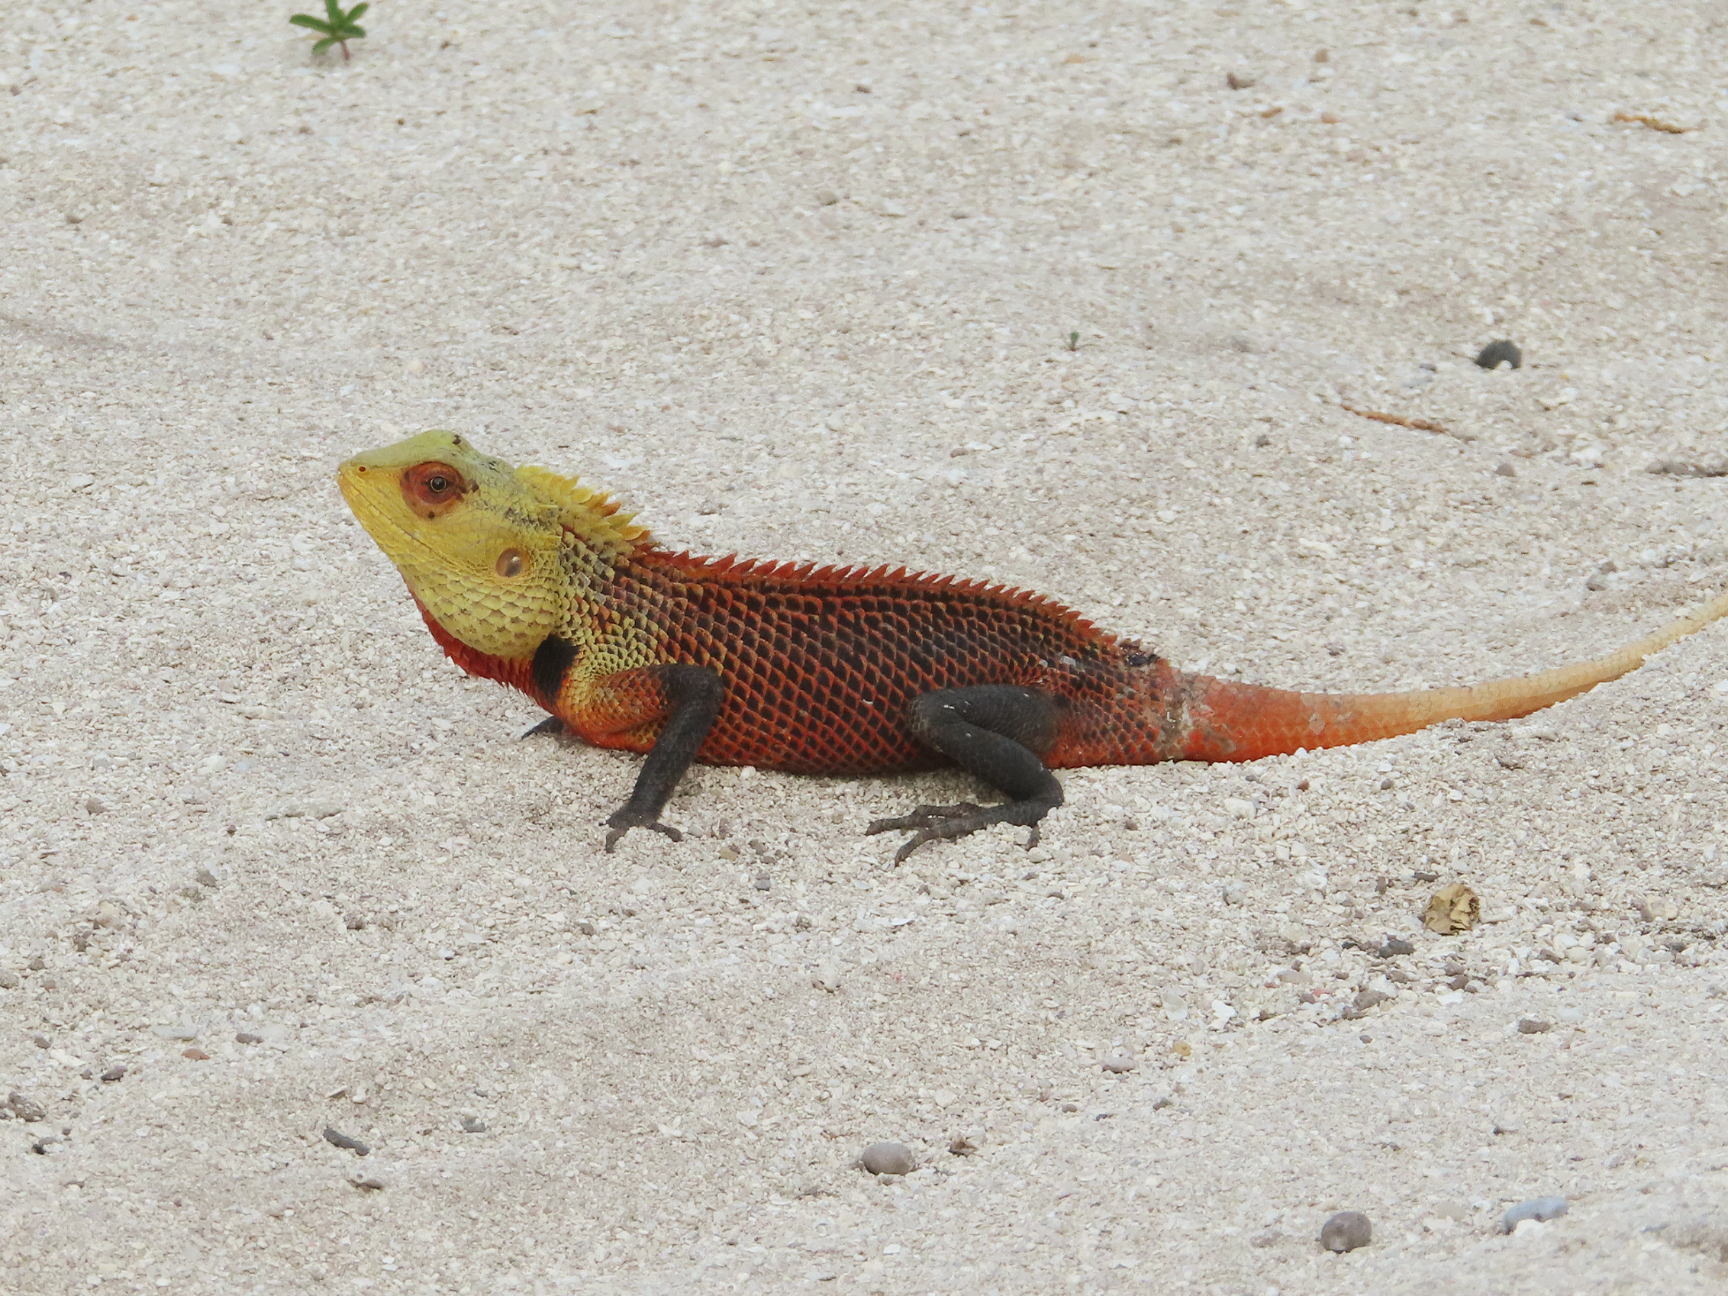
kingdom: Animalia
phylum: Chordata
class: Squamata
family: Agamidae
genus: Calotes
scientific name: Calotes versicolor
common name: Oriental garden lizard
